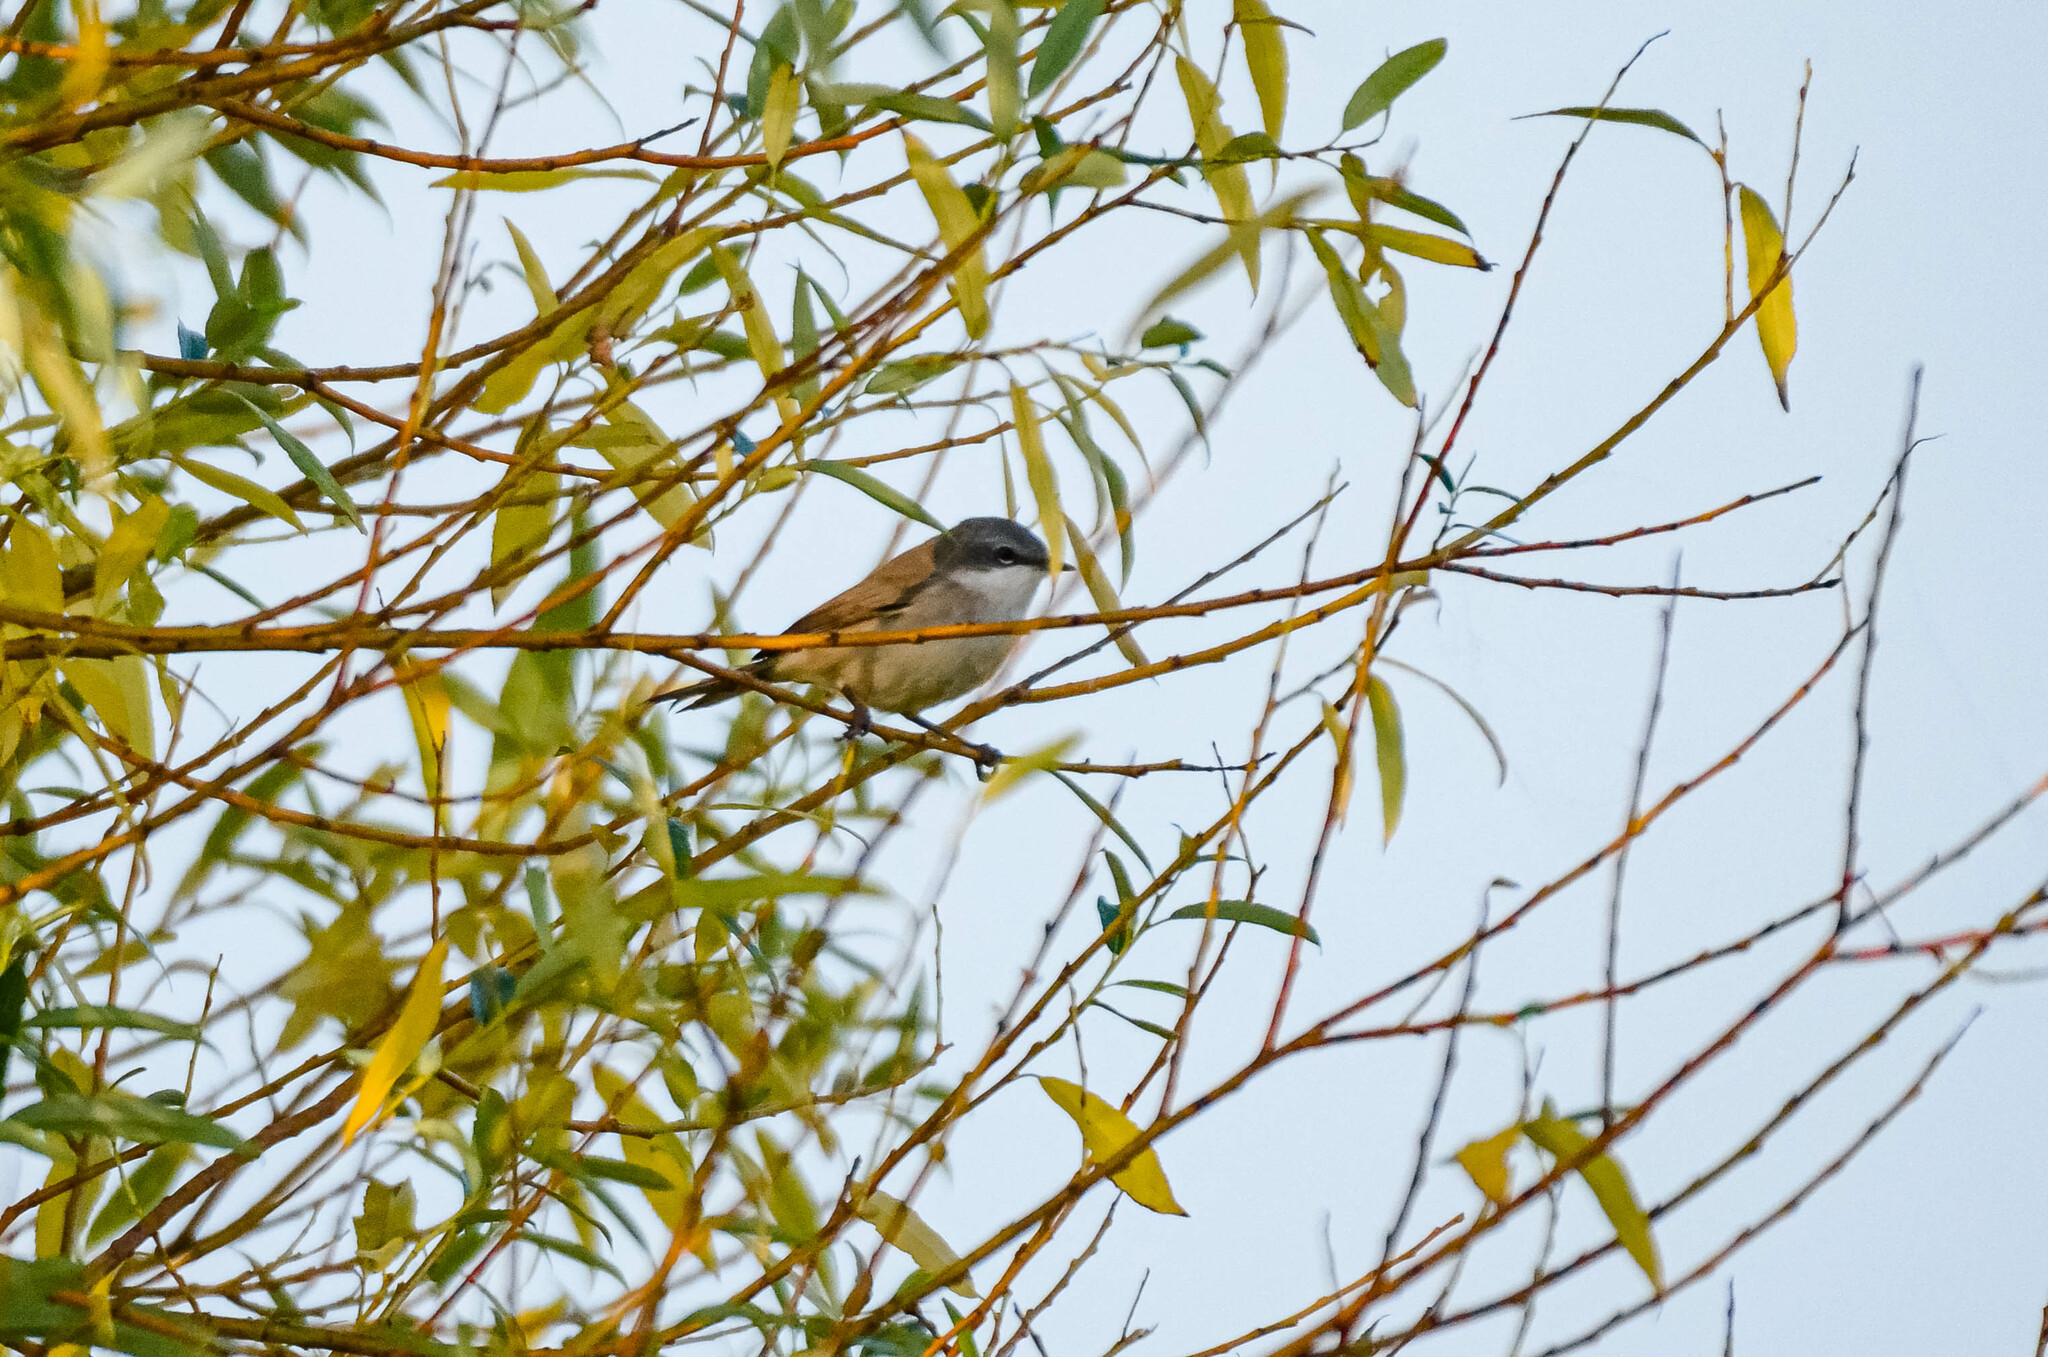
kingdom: Animalia
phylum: Chordata
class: Aves
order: Passeriformes
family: Sylviidae
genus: Sylvia
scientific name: Sylvia curruca
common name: Lesser whitethroat
